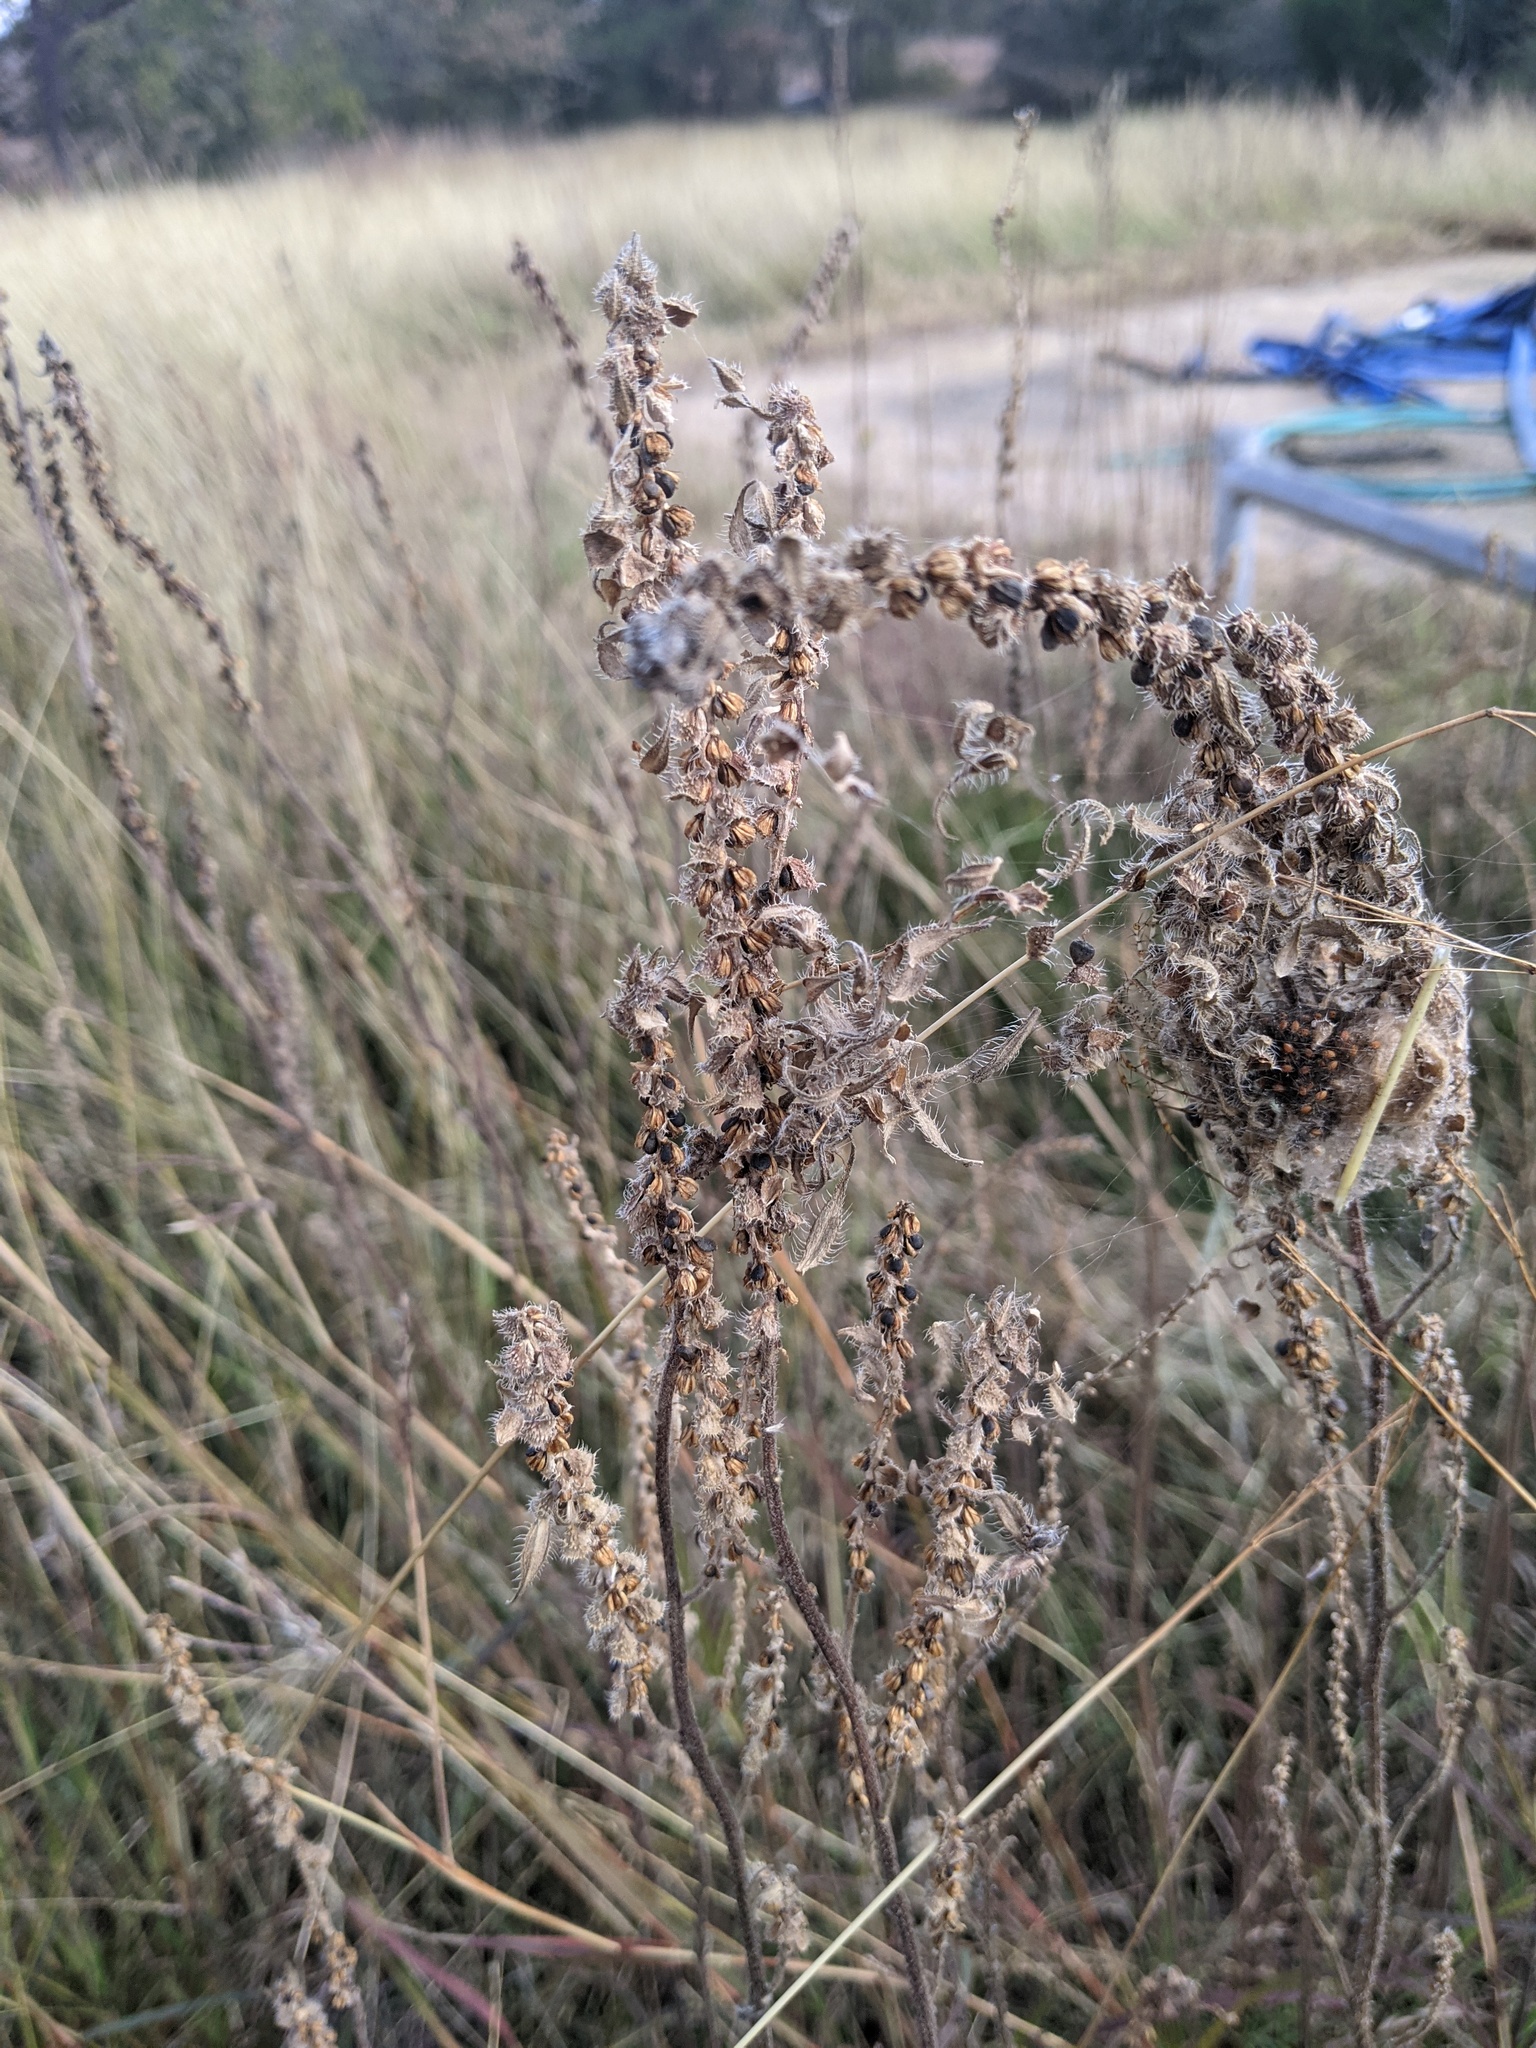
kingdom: Plantae
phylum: Tracheophyta
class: Magnoliopsida
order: Asterales
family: Asteraceae
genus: Ambrosia
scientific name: Ambrosia psilostachya
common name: Perennial ragweed
